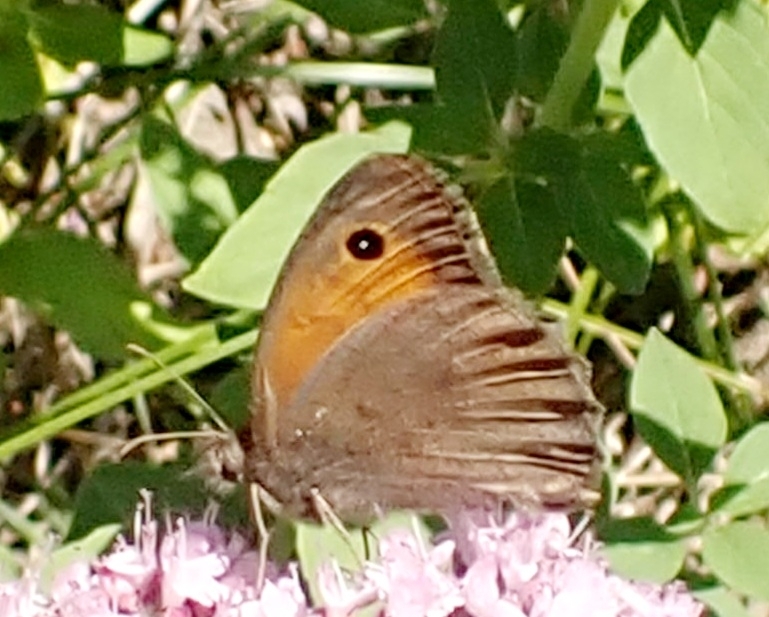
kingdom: Animalia
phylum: Arthropoda
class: Insecta
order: Lepidoptera
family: Nymphalidae
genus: Hyponephele
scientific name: Hyponephele lycaon
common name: Dusky meadow brown
